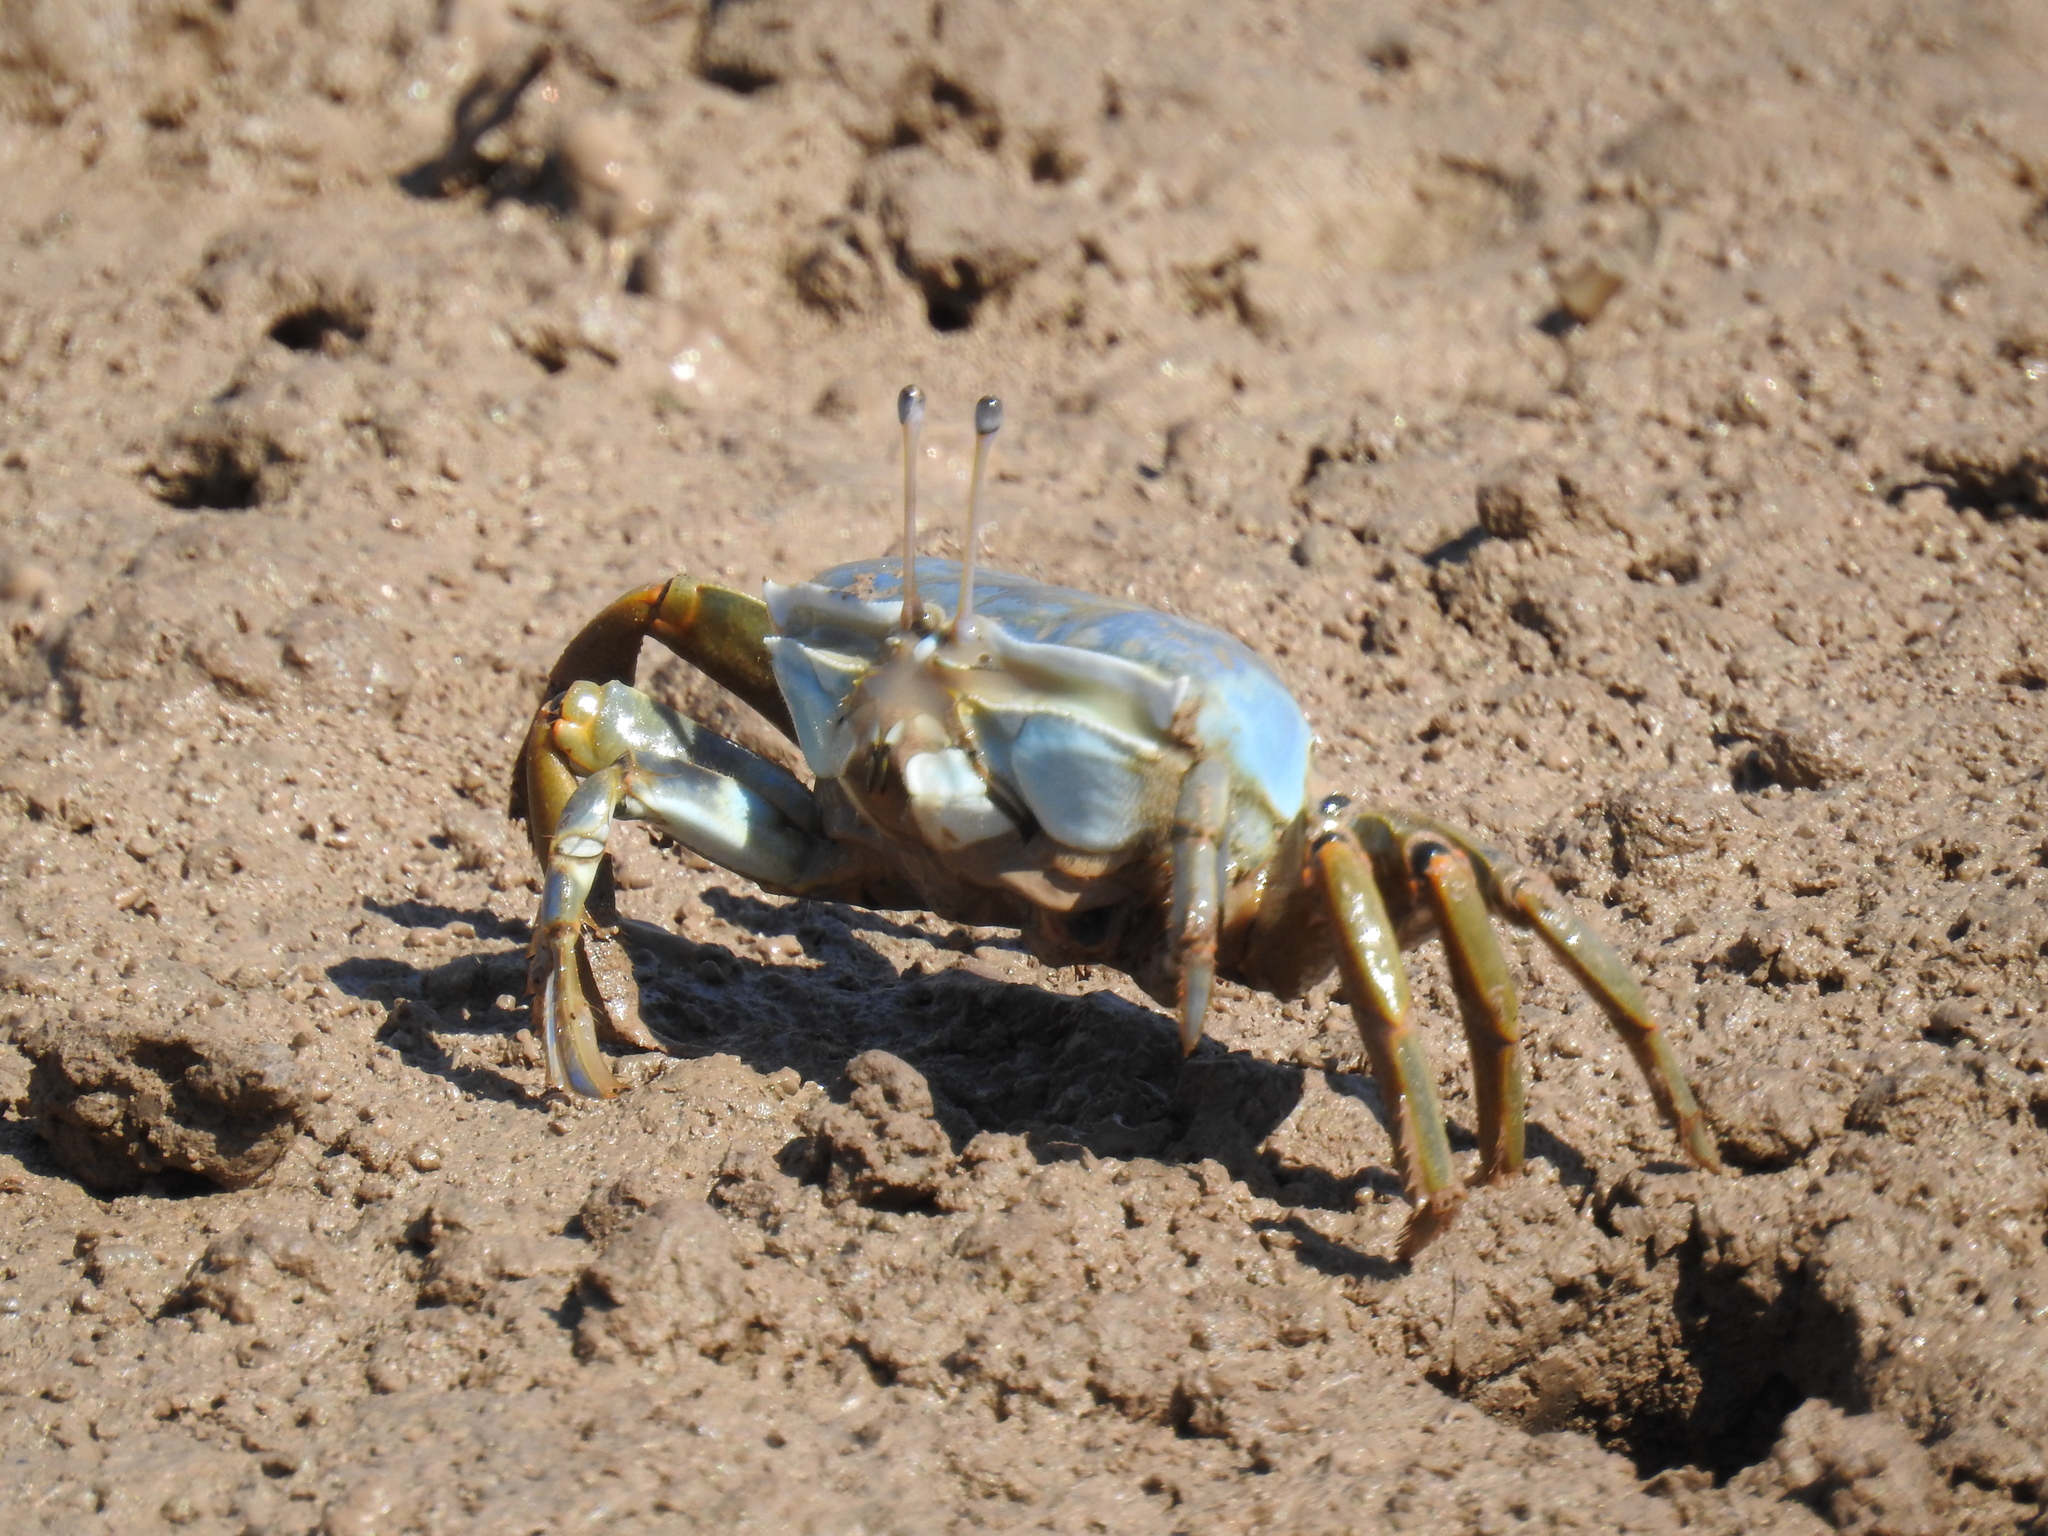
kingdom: Animalia
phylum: Arthropoda
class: Malacostraca
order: Decapoda
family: Ocypodidae
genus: Uca
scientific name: Uca monilifera
